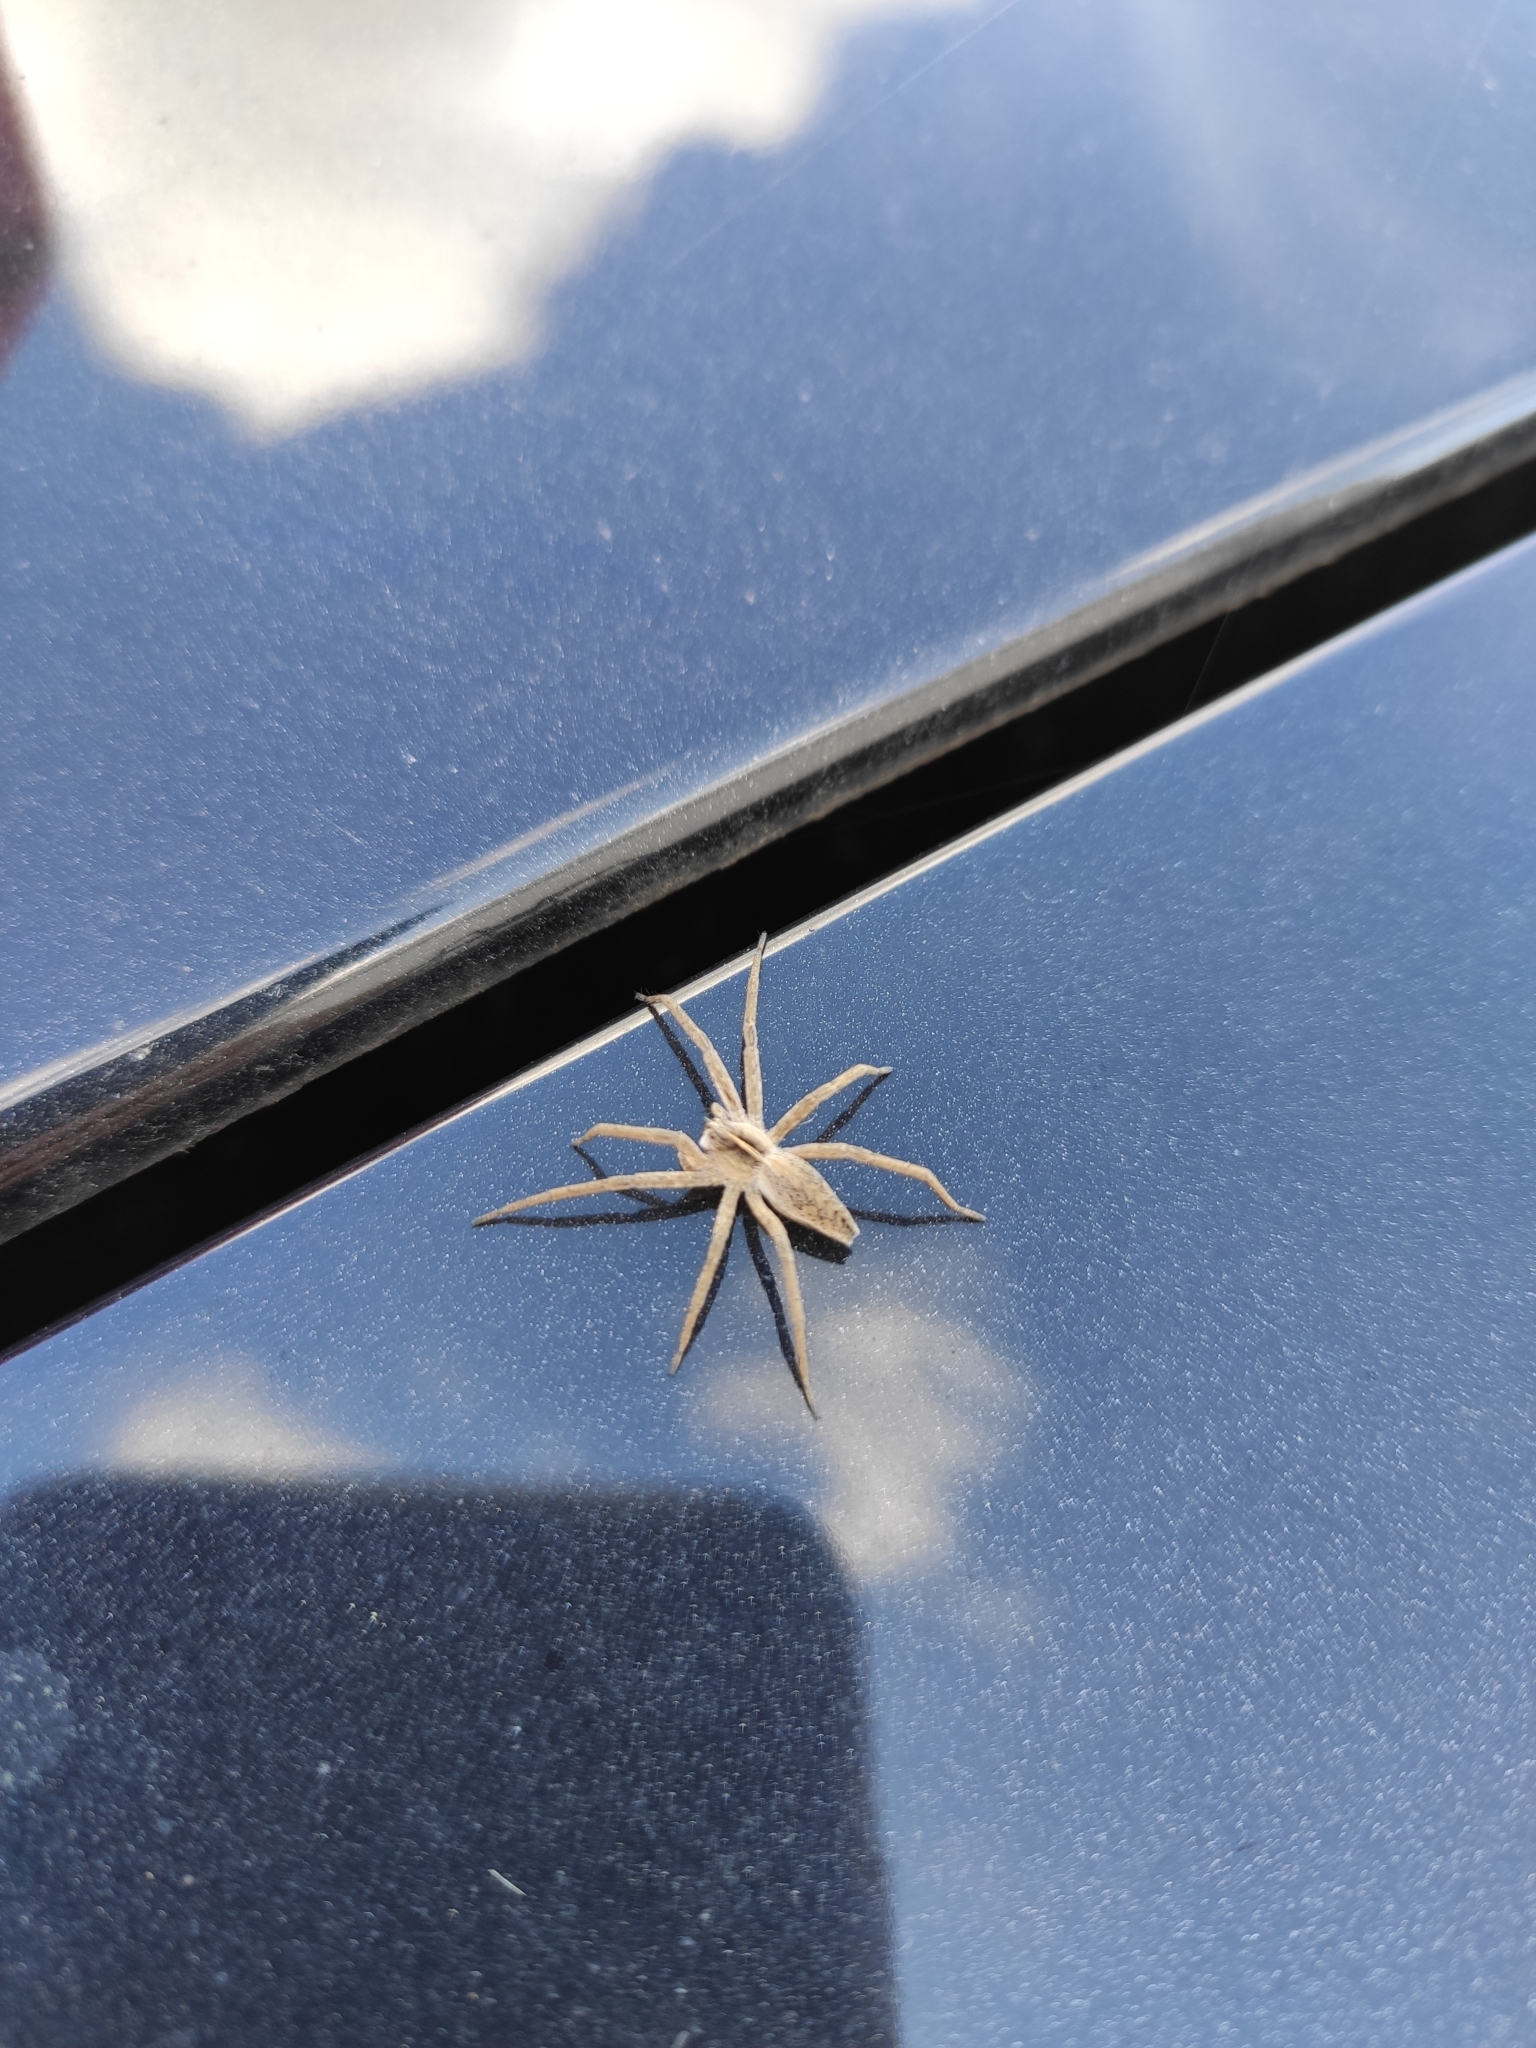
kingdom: Animalia
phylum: Arthropoda
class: Arachnida
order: Araneae
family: Pisauridae
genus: Pisaura
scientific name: Pisaura mirabilis
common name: Tent spider
